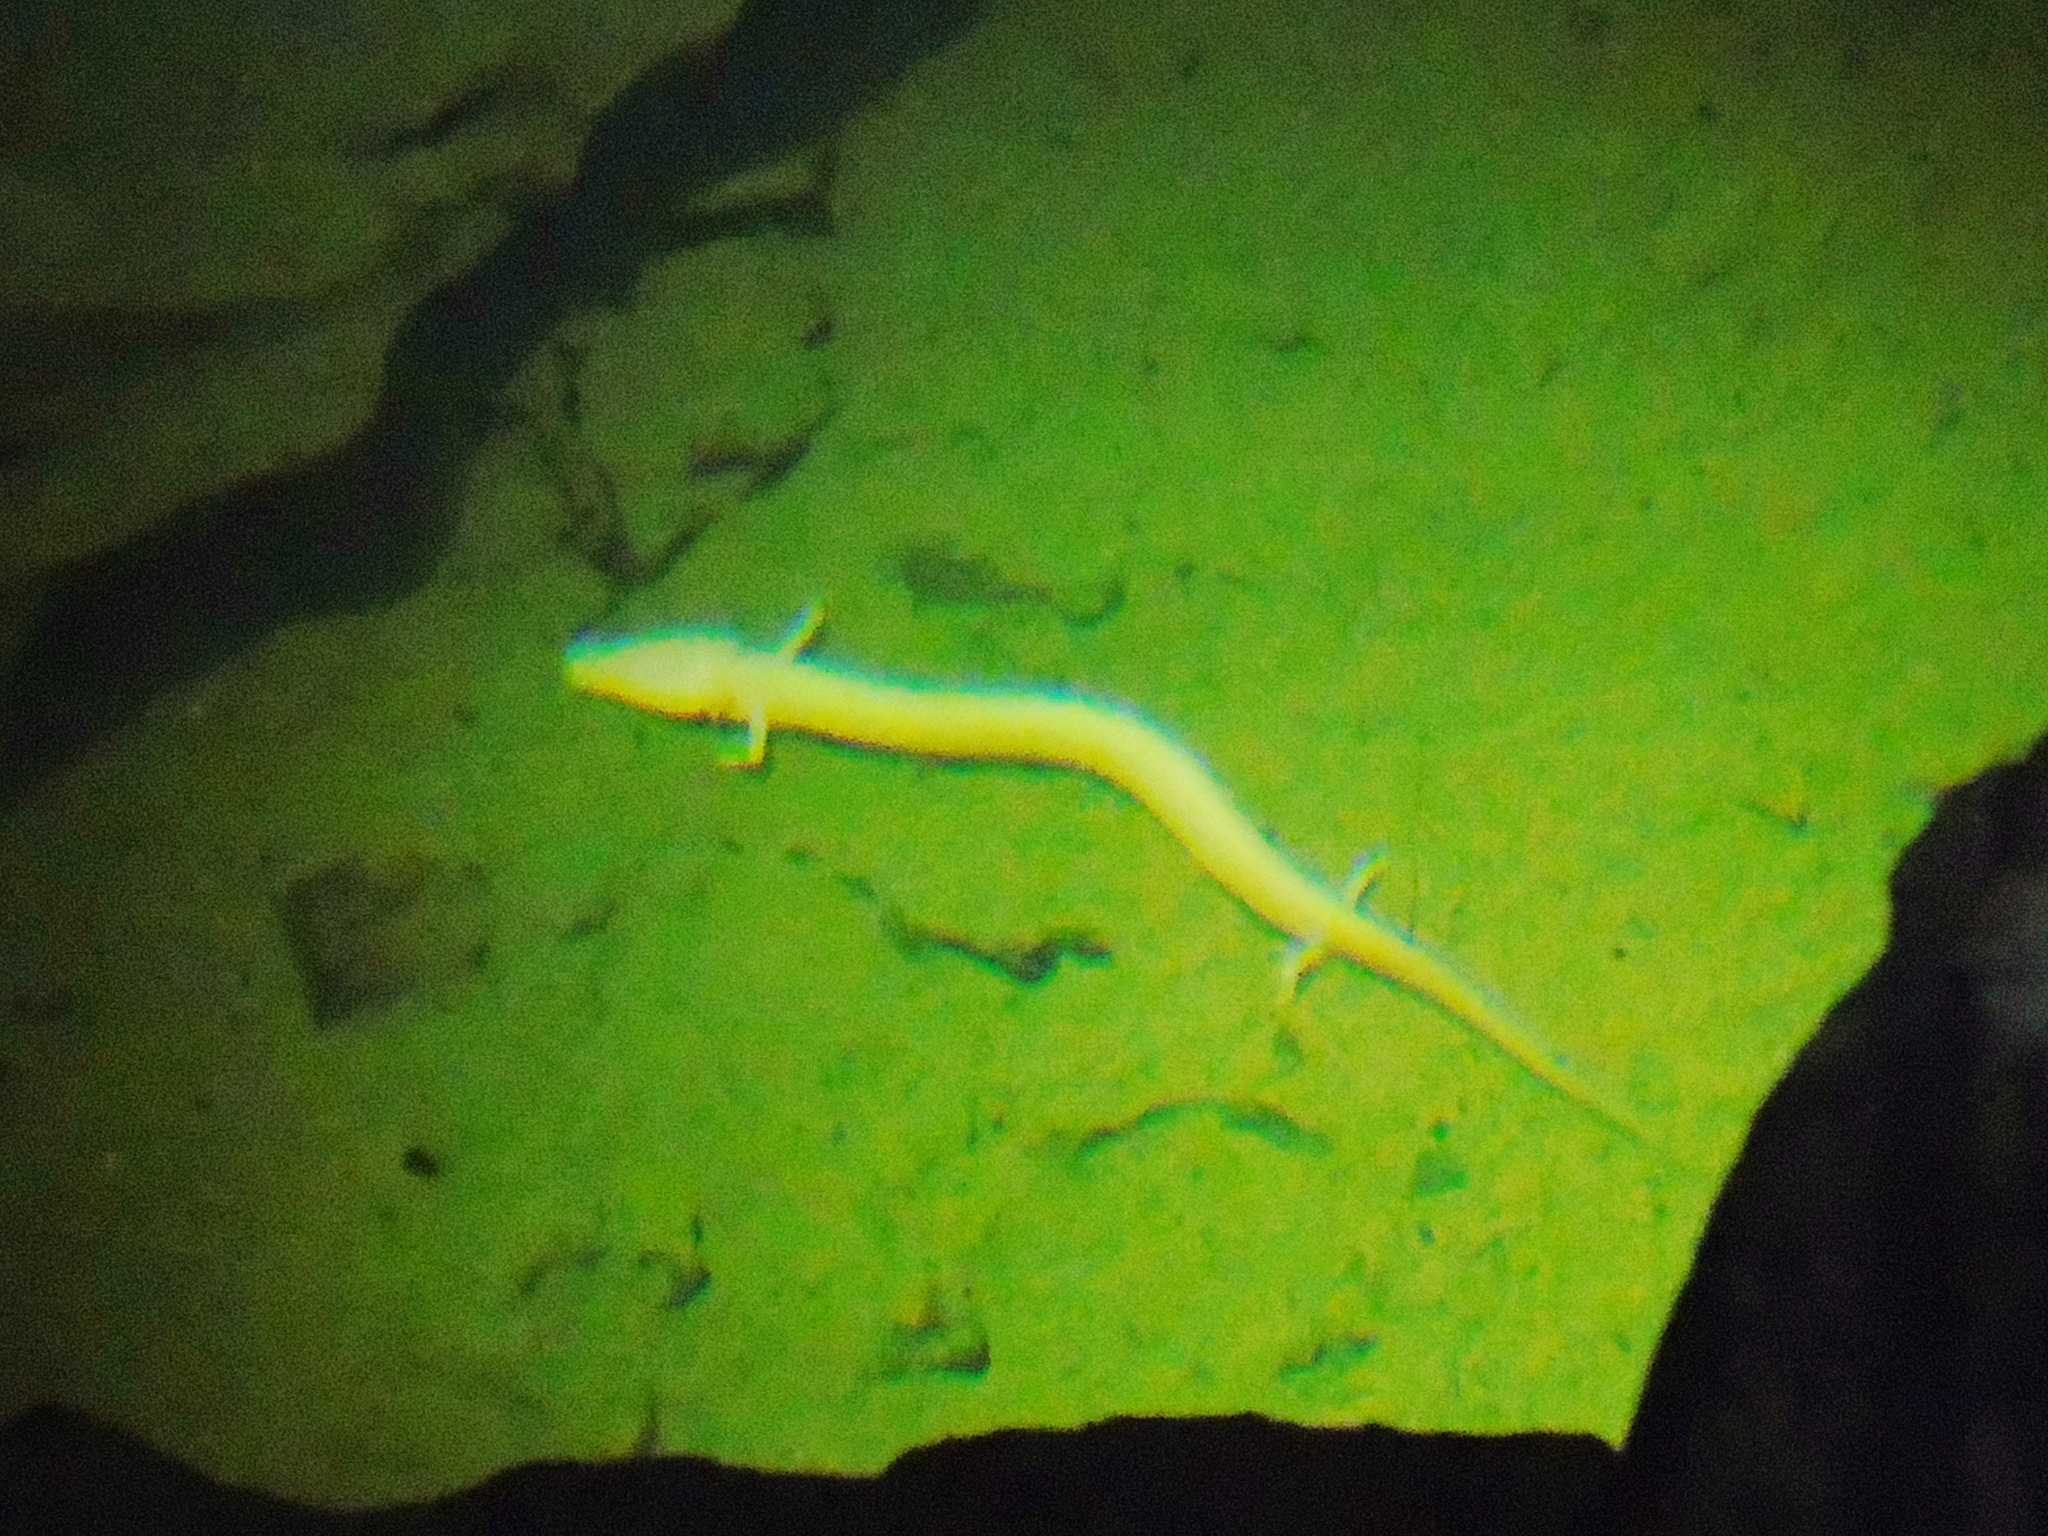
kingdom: Animalia
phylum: Chordata
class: Amphibia
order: Caudata
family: Proteidae
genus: Proteus
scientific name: Proteus anguinus
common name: Olm
